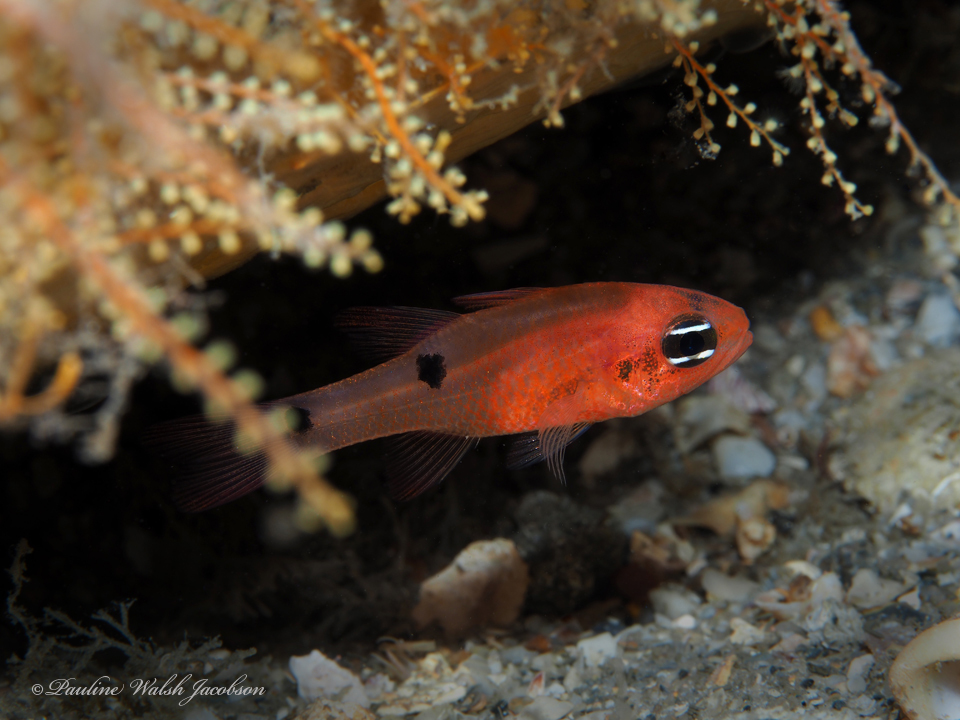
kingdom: Animalia
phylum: Chordata
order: Perciformes
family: Apogonidae
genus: Apogon
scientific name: Apogon pseudomaculatus
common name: Twospot cardinalfish
